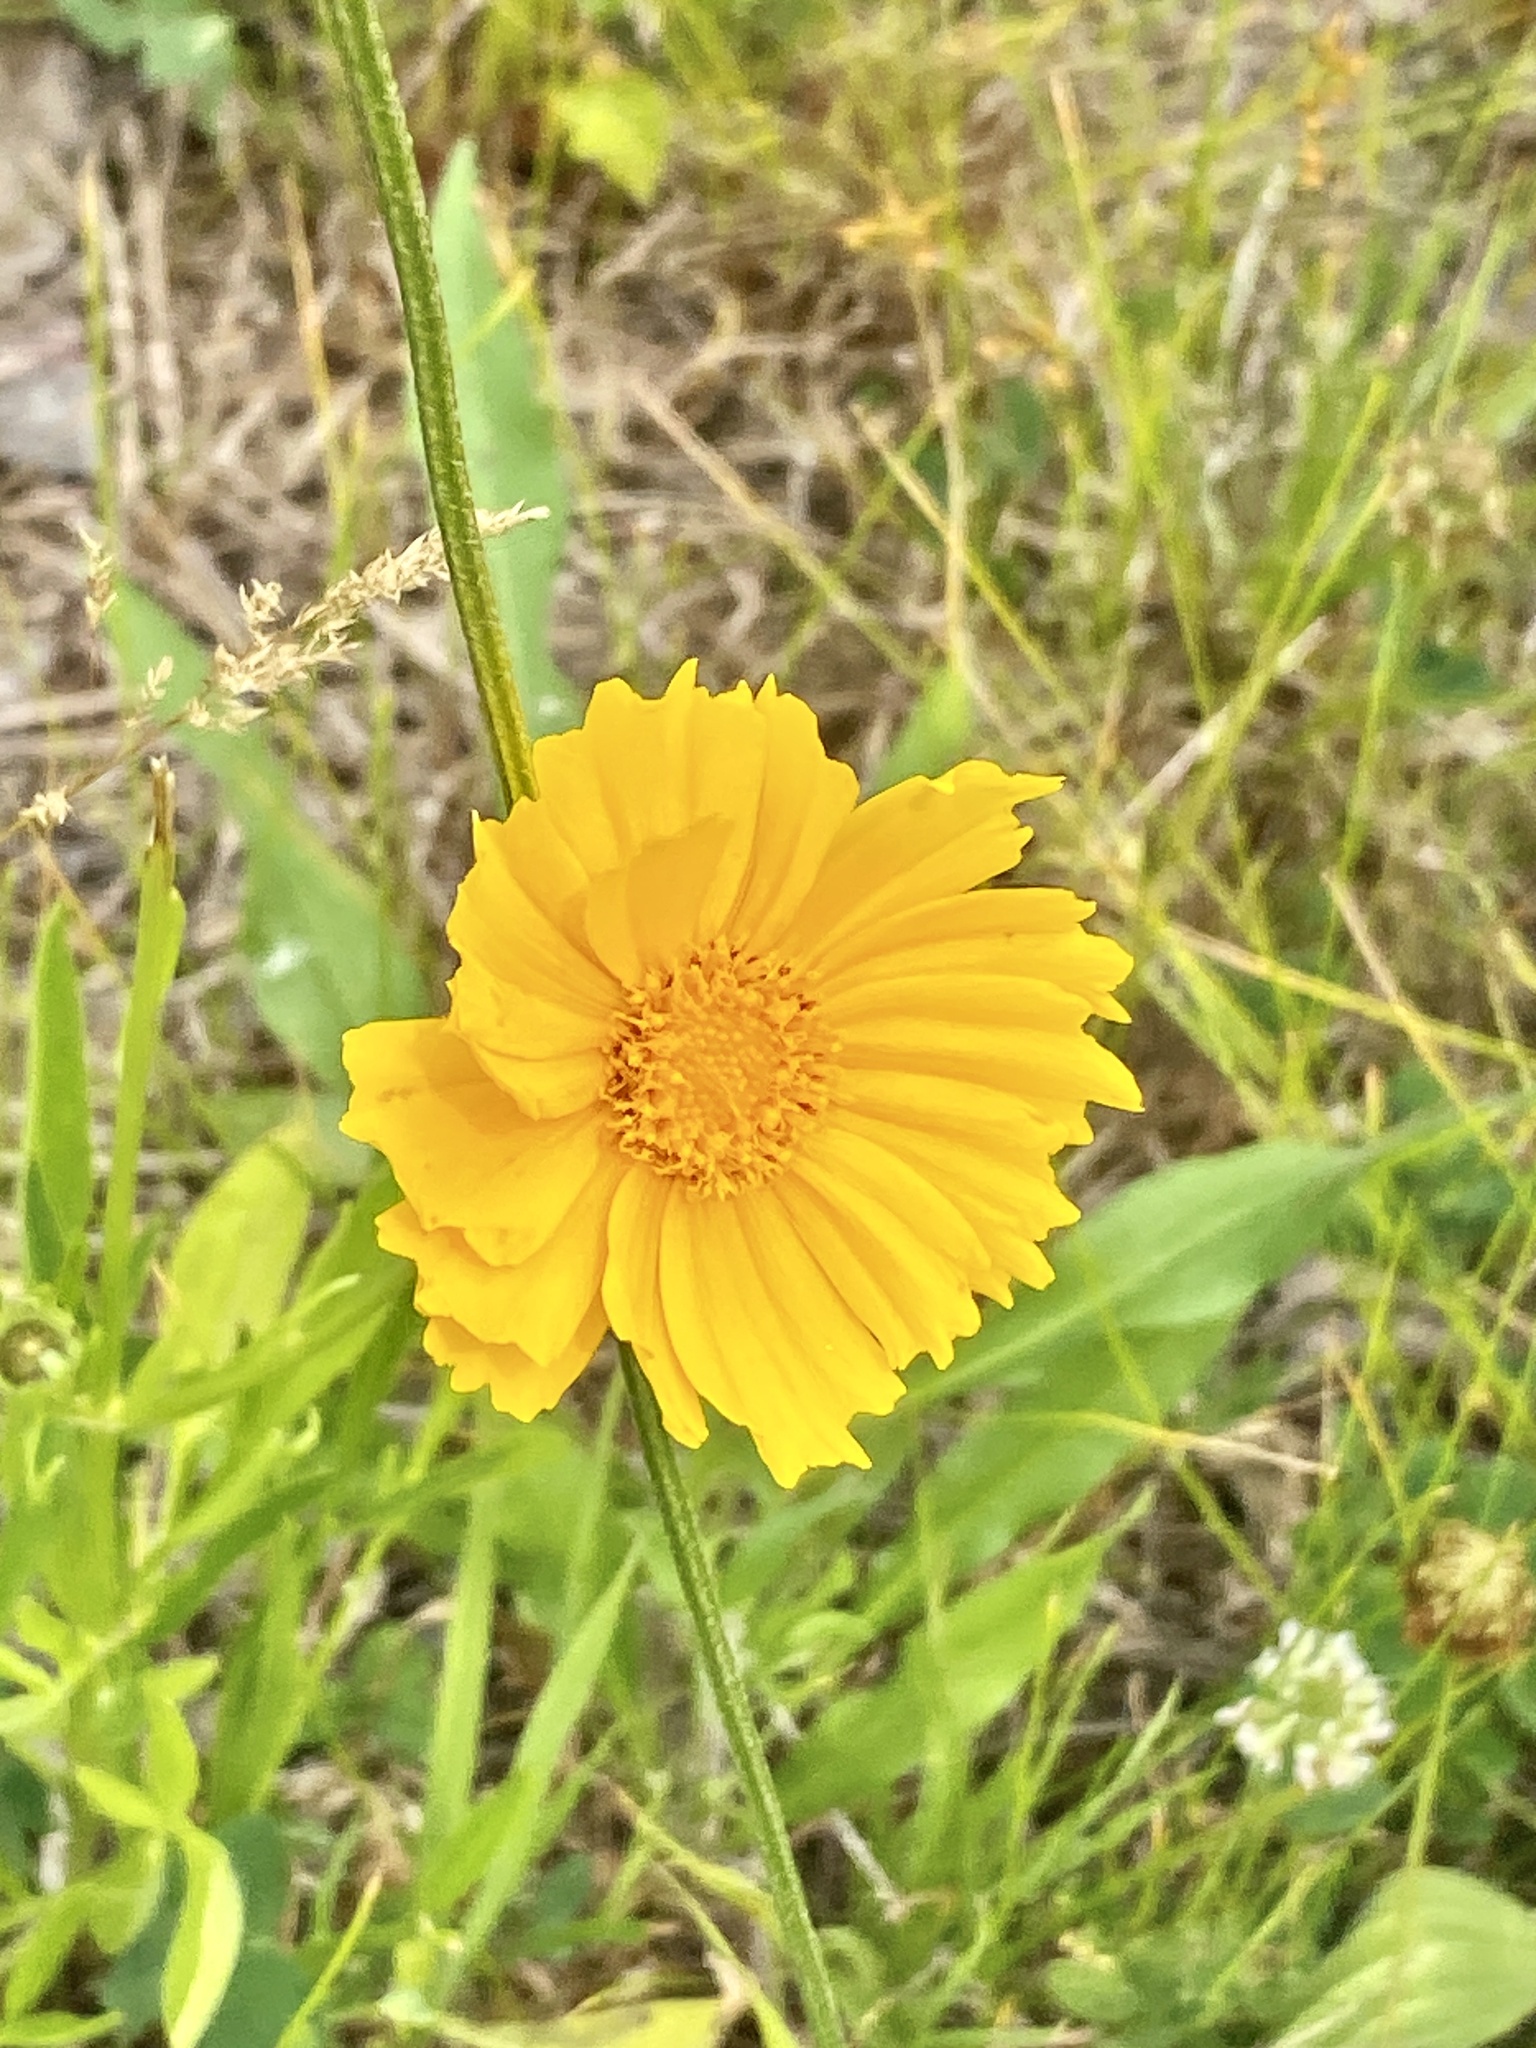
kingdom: Plantae
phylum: Tracheophyta
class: Magnoliopsida
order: Asterales
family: Asteraceae
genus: Coreopsis
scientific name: Coreopsis lanceolata
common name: Garden coreopsis
